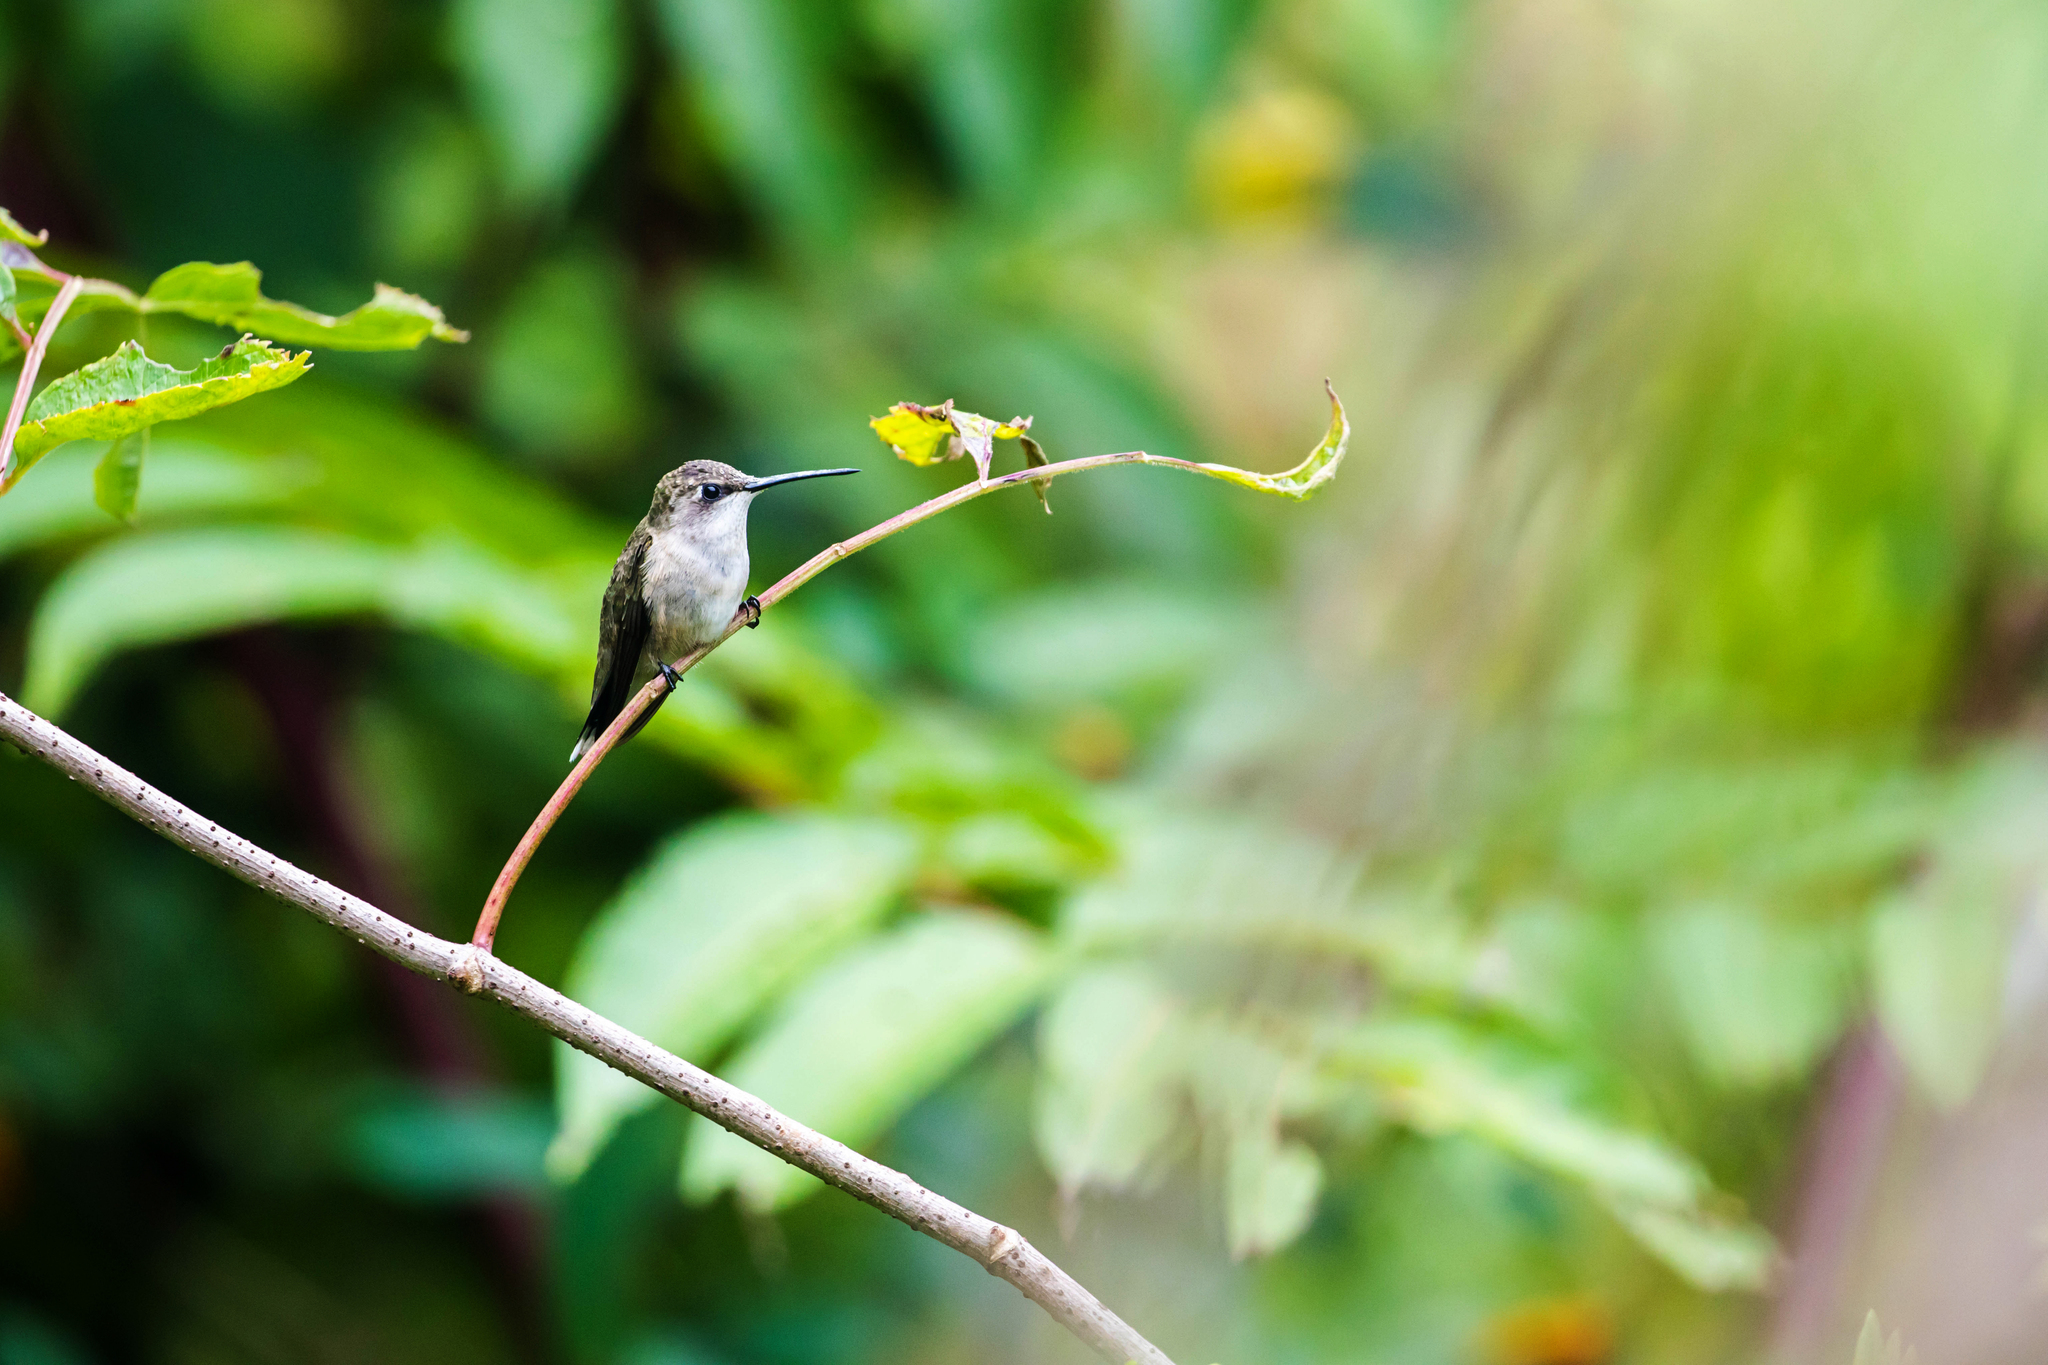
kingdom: Animalia
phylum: Chordata
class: Aves
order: Apodiformes
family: Trochilidae
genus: Archilochus
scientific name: Archilochus colubris
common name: Ruby-throated hummingbird
